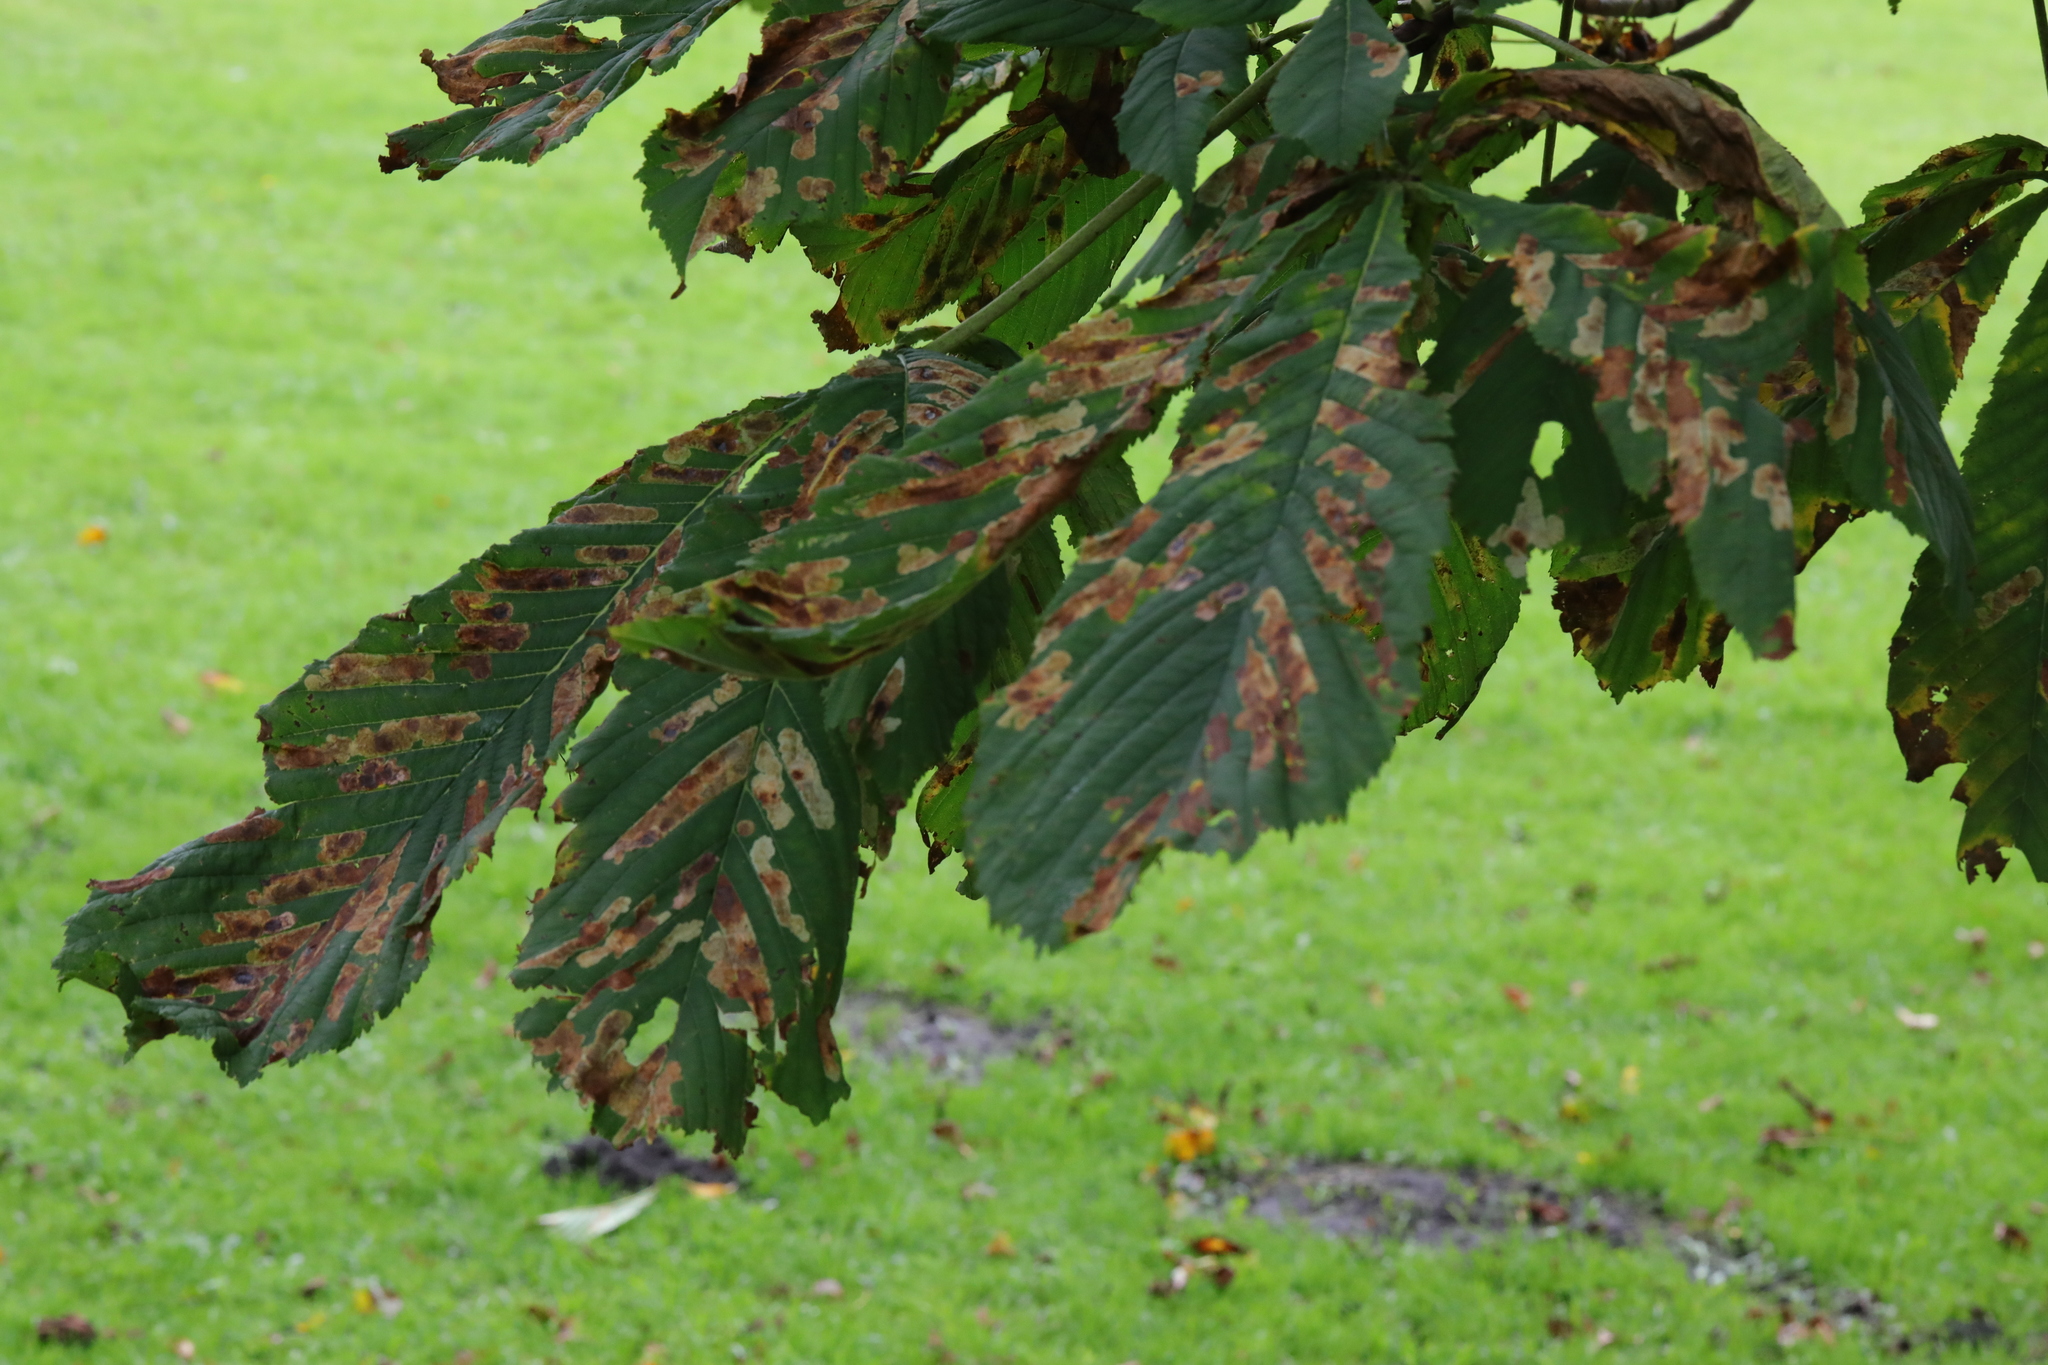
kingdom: Animalia
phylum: Arthropoda
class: Insecta
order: Lepidoptera
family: Gracillariidae
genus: Cameraria
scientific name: Cameraria ohridella
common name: Horse-chestnut leaf-miner
